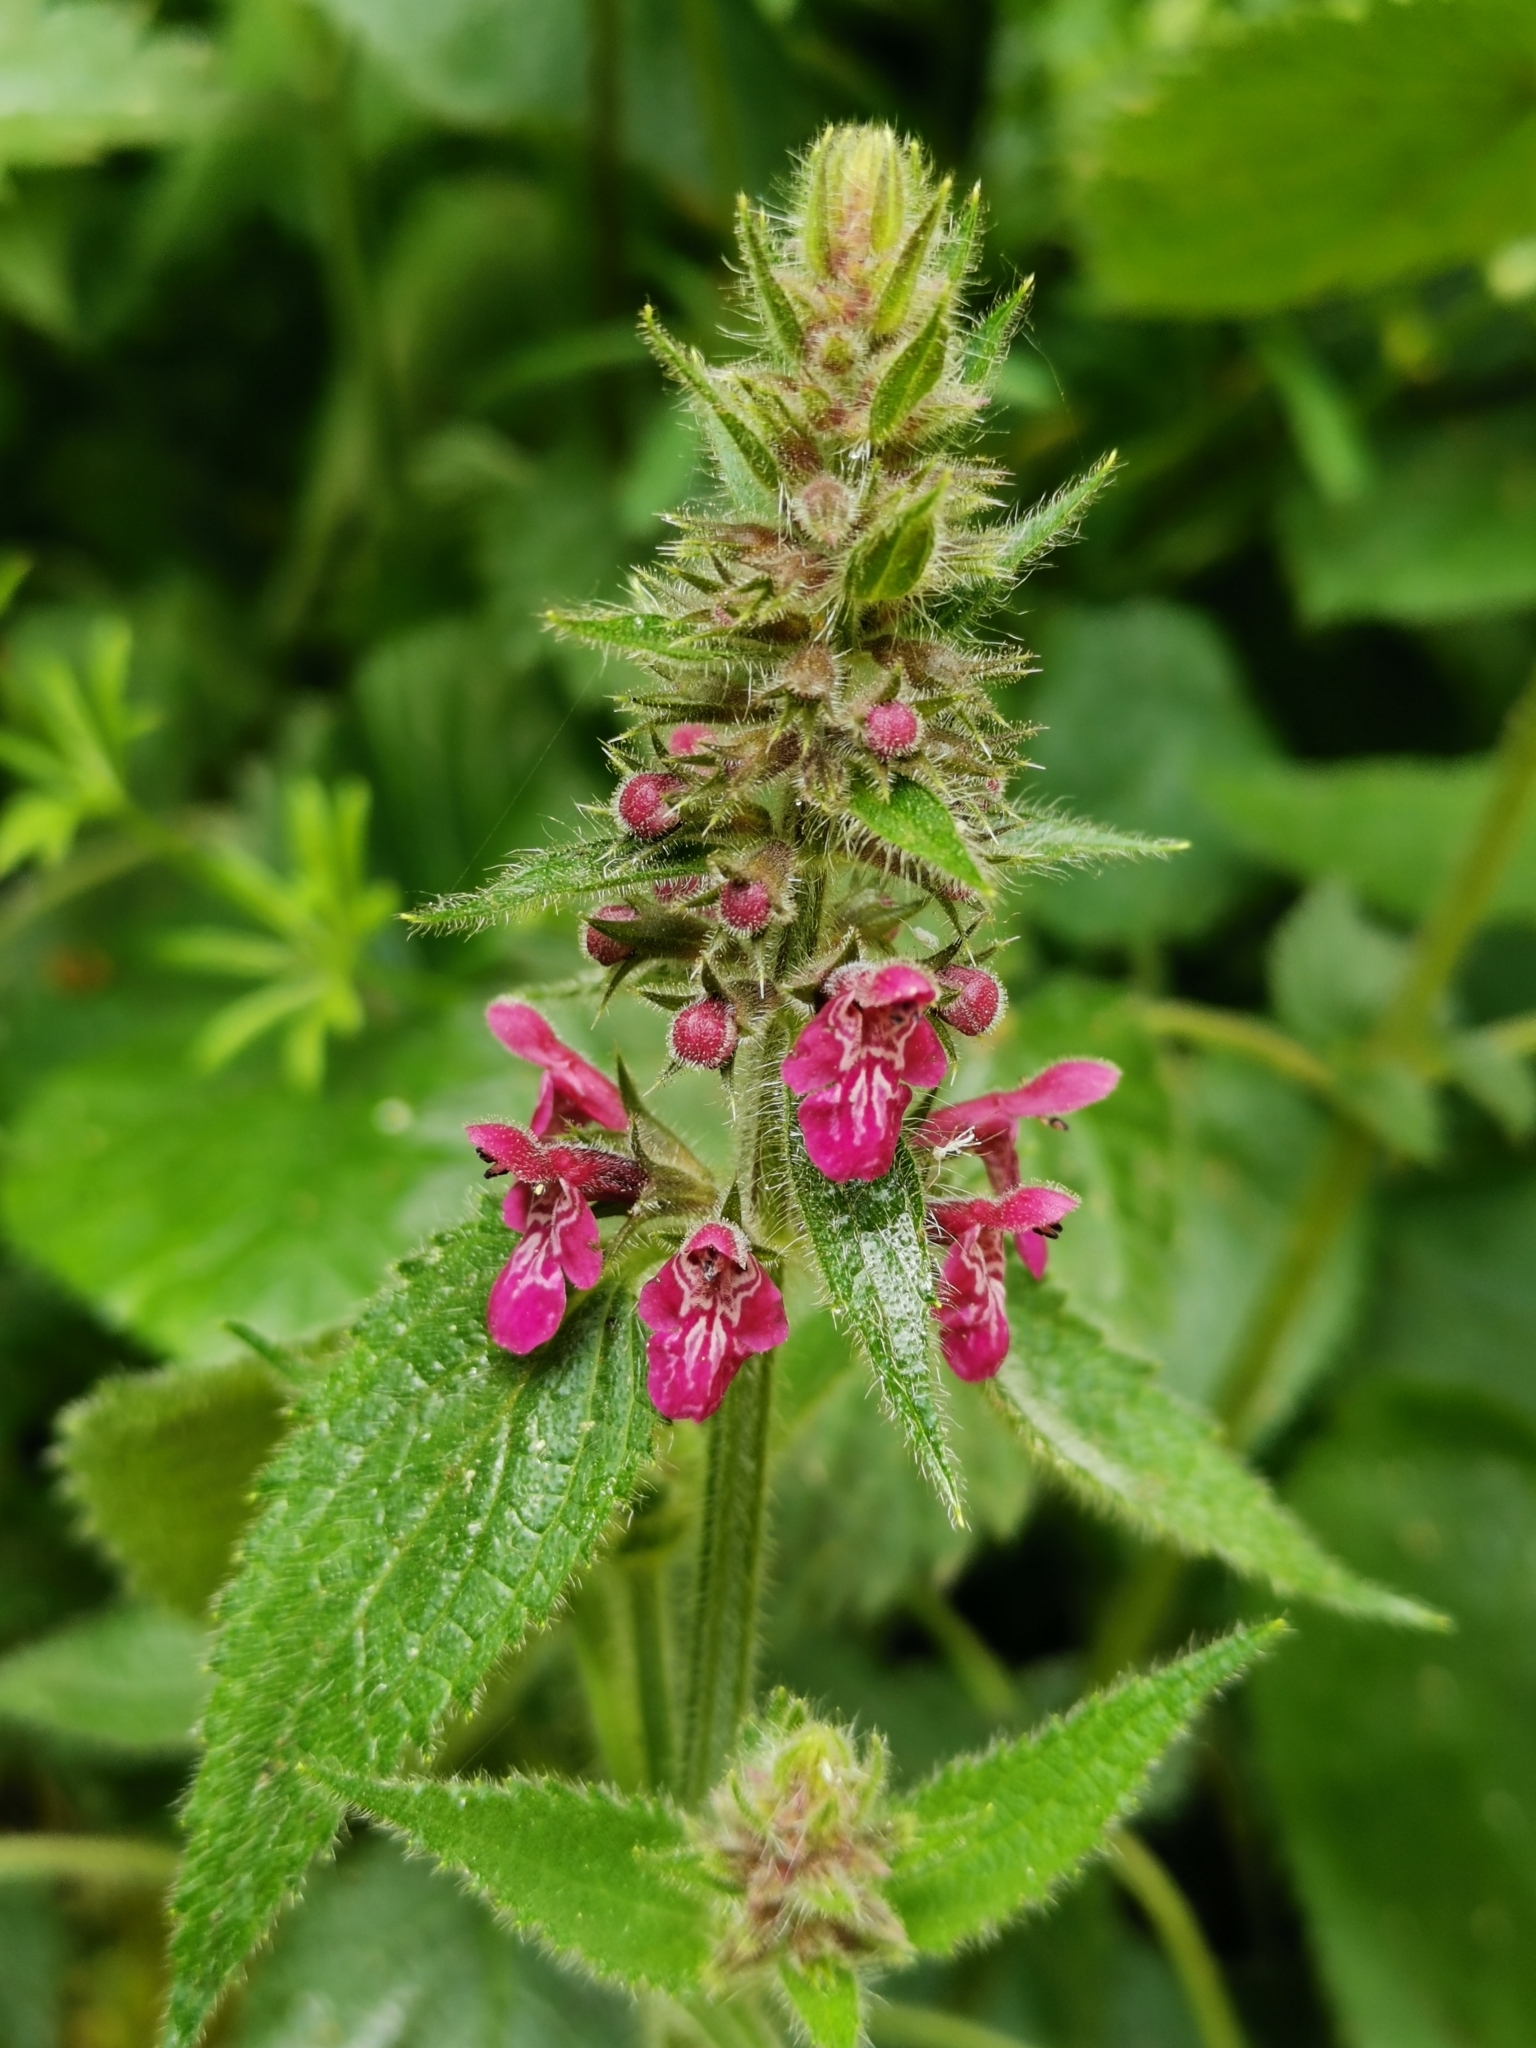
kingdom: Plantae
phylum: Tracheophyta
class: Magnoliopsida
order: Lamiales
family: Lamiaceae
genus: Stachys
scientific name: Stachys sylvatica
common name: Hedge woundwort
